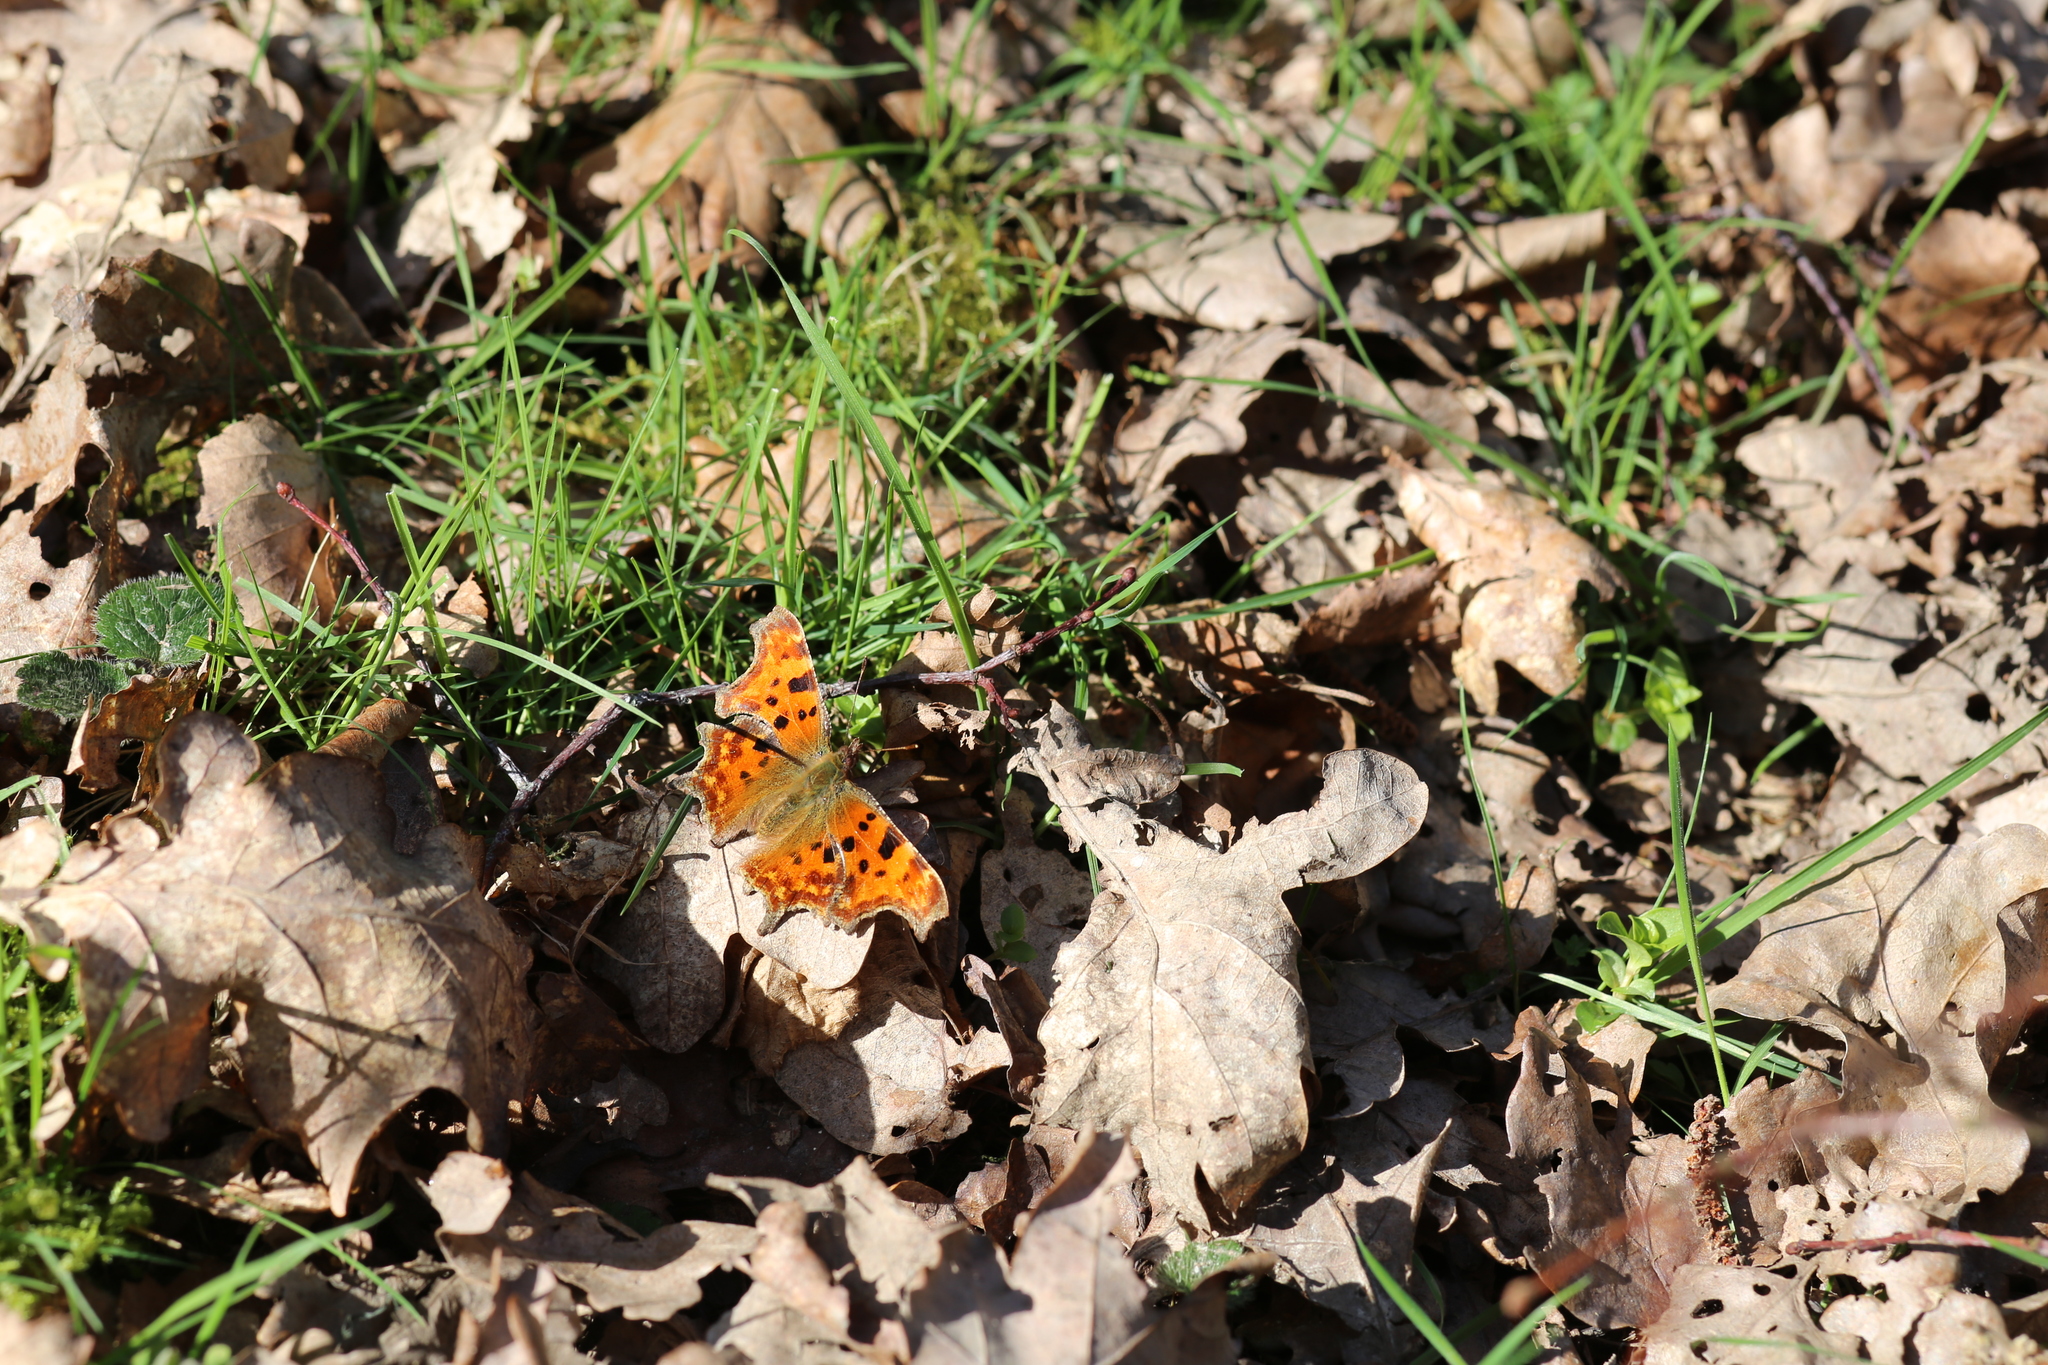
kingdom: Animalia
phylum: Arthropoda
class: Insecta
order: Lepidoptera
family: Nymphalidae
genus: Polygonia
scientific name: Polygonia c-album
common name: Comma
